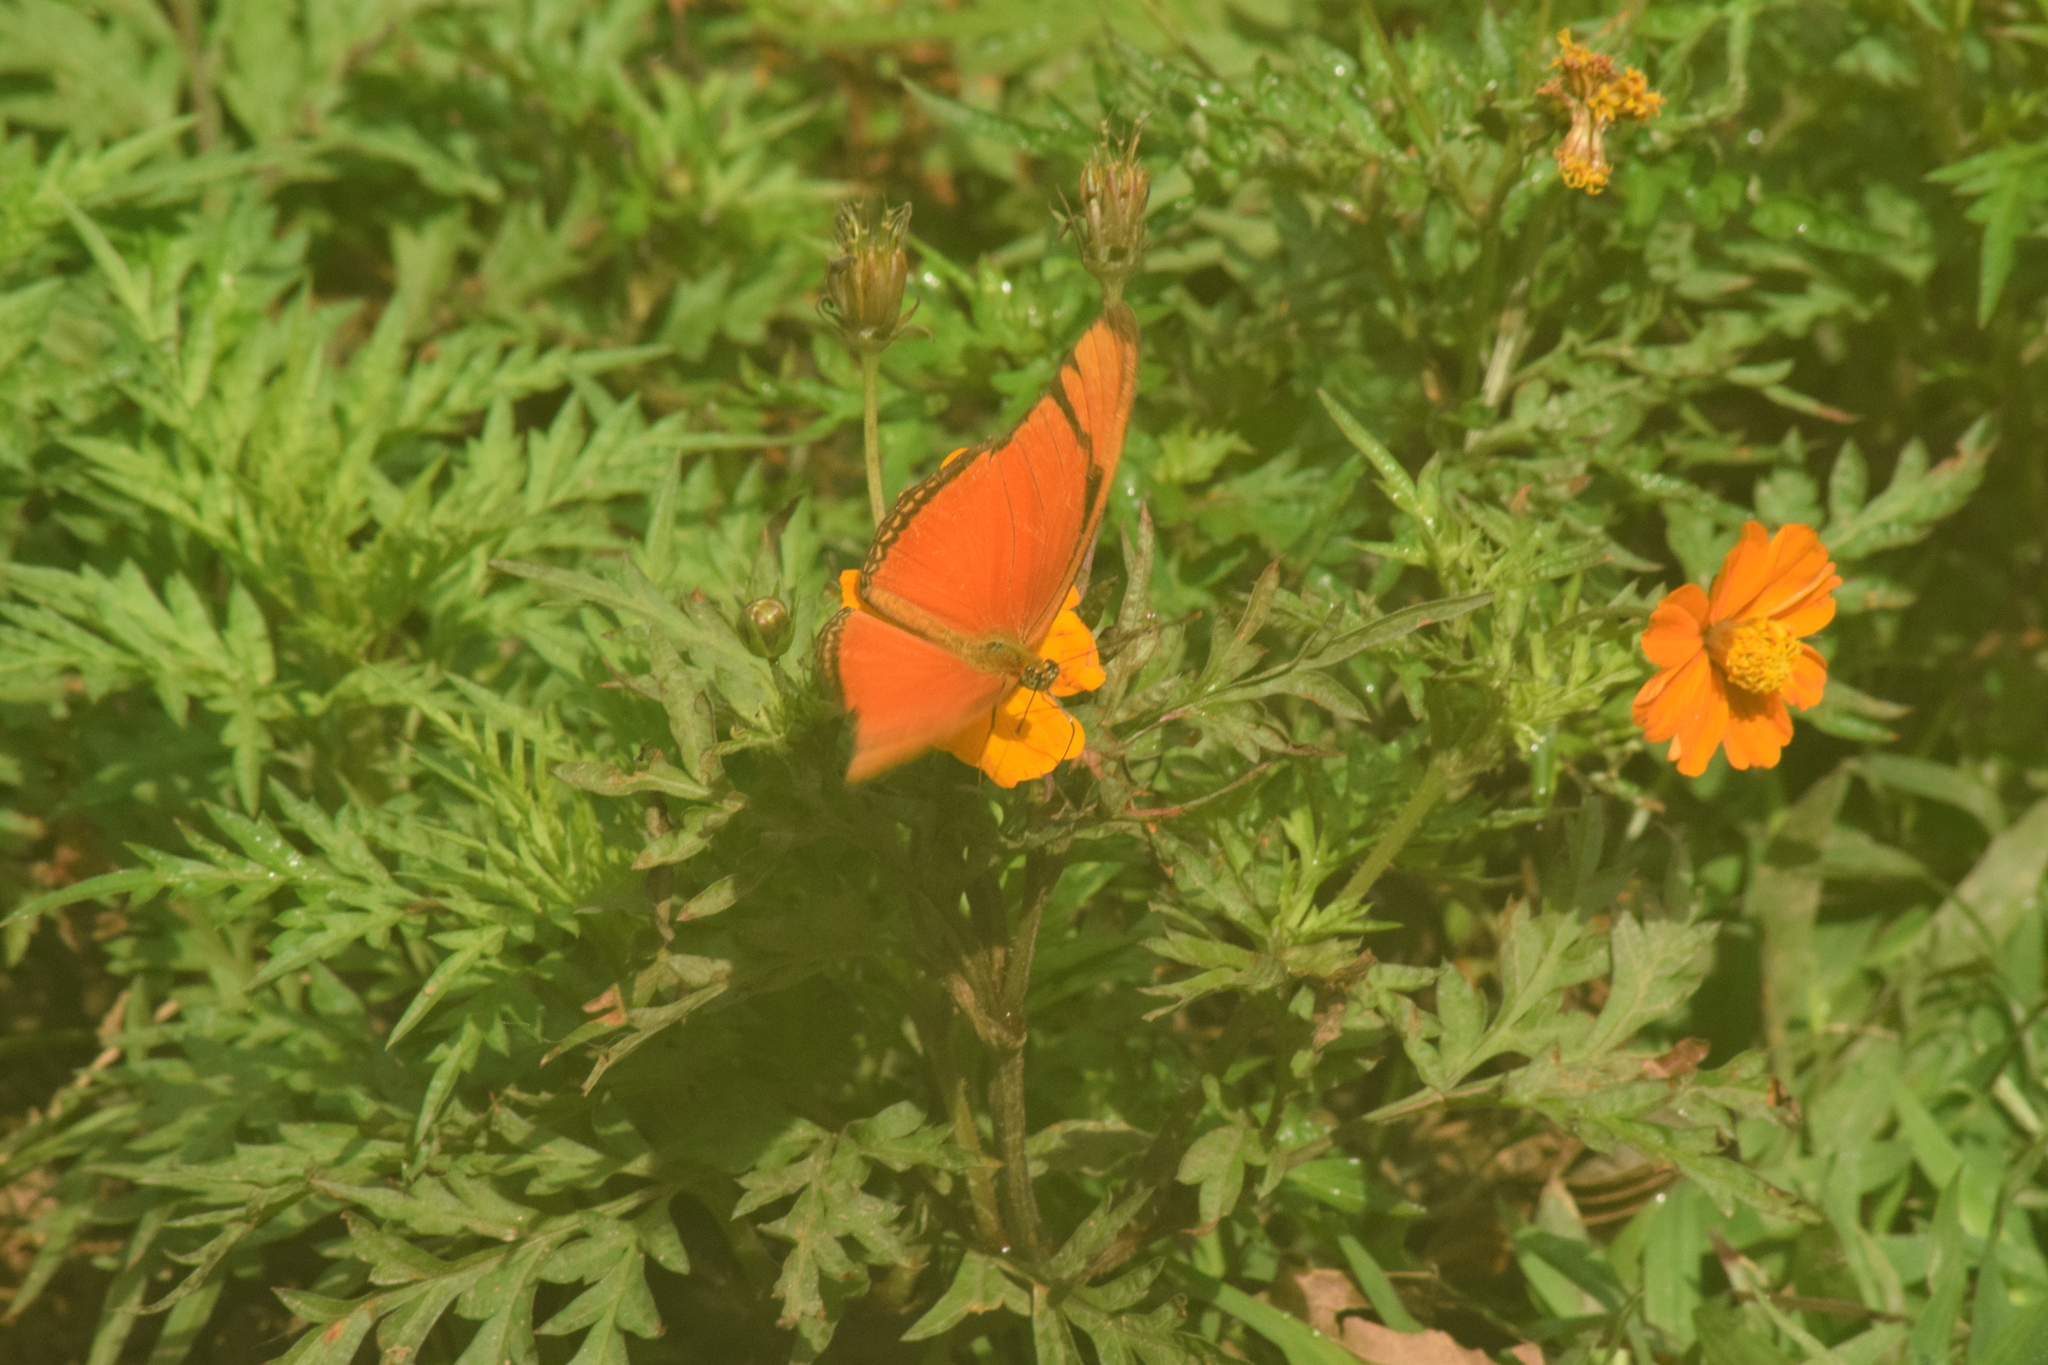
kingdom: Animalia
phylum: Arthropoda
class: Insecta
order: Lepidoptera
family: Nymphalidae
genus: Dryas
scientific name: Dryas iulia
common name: Flambeau
